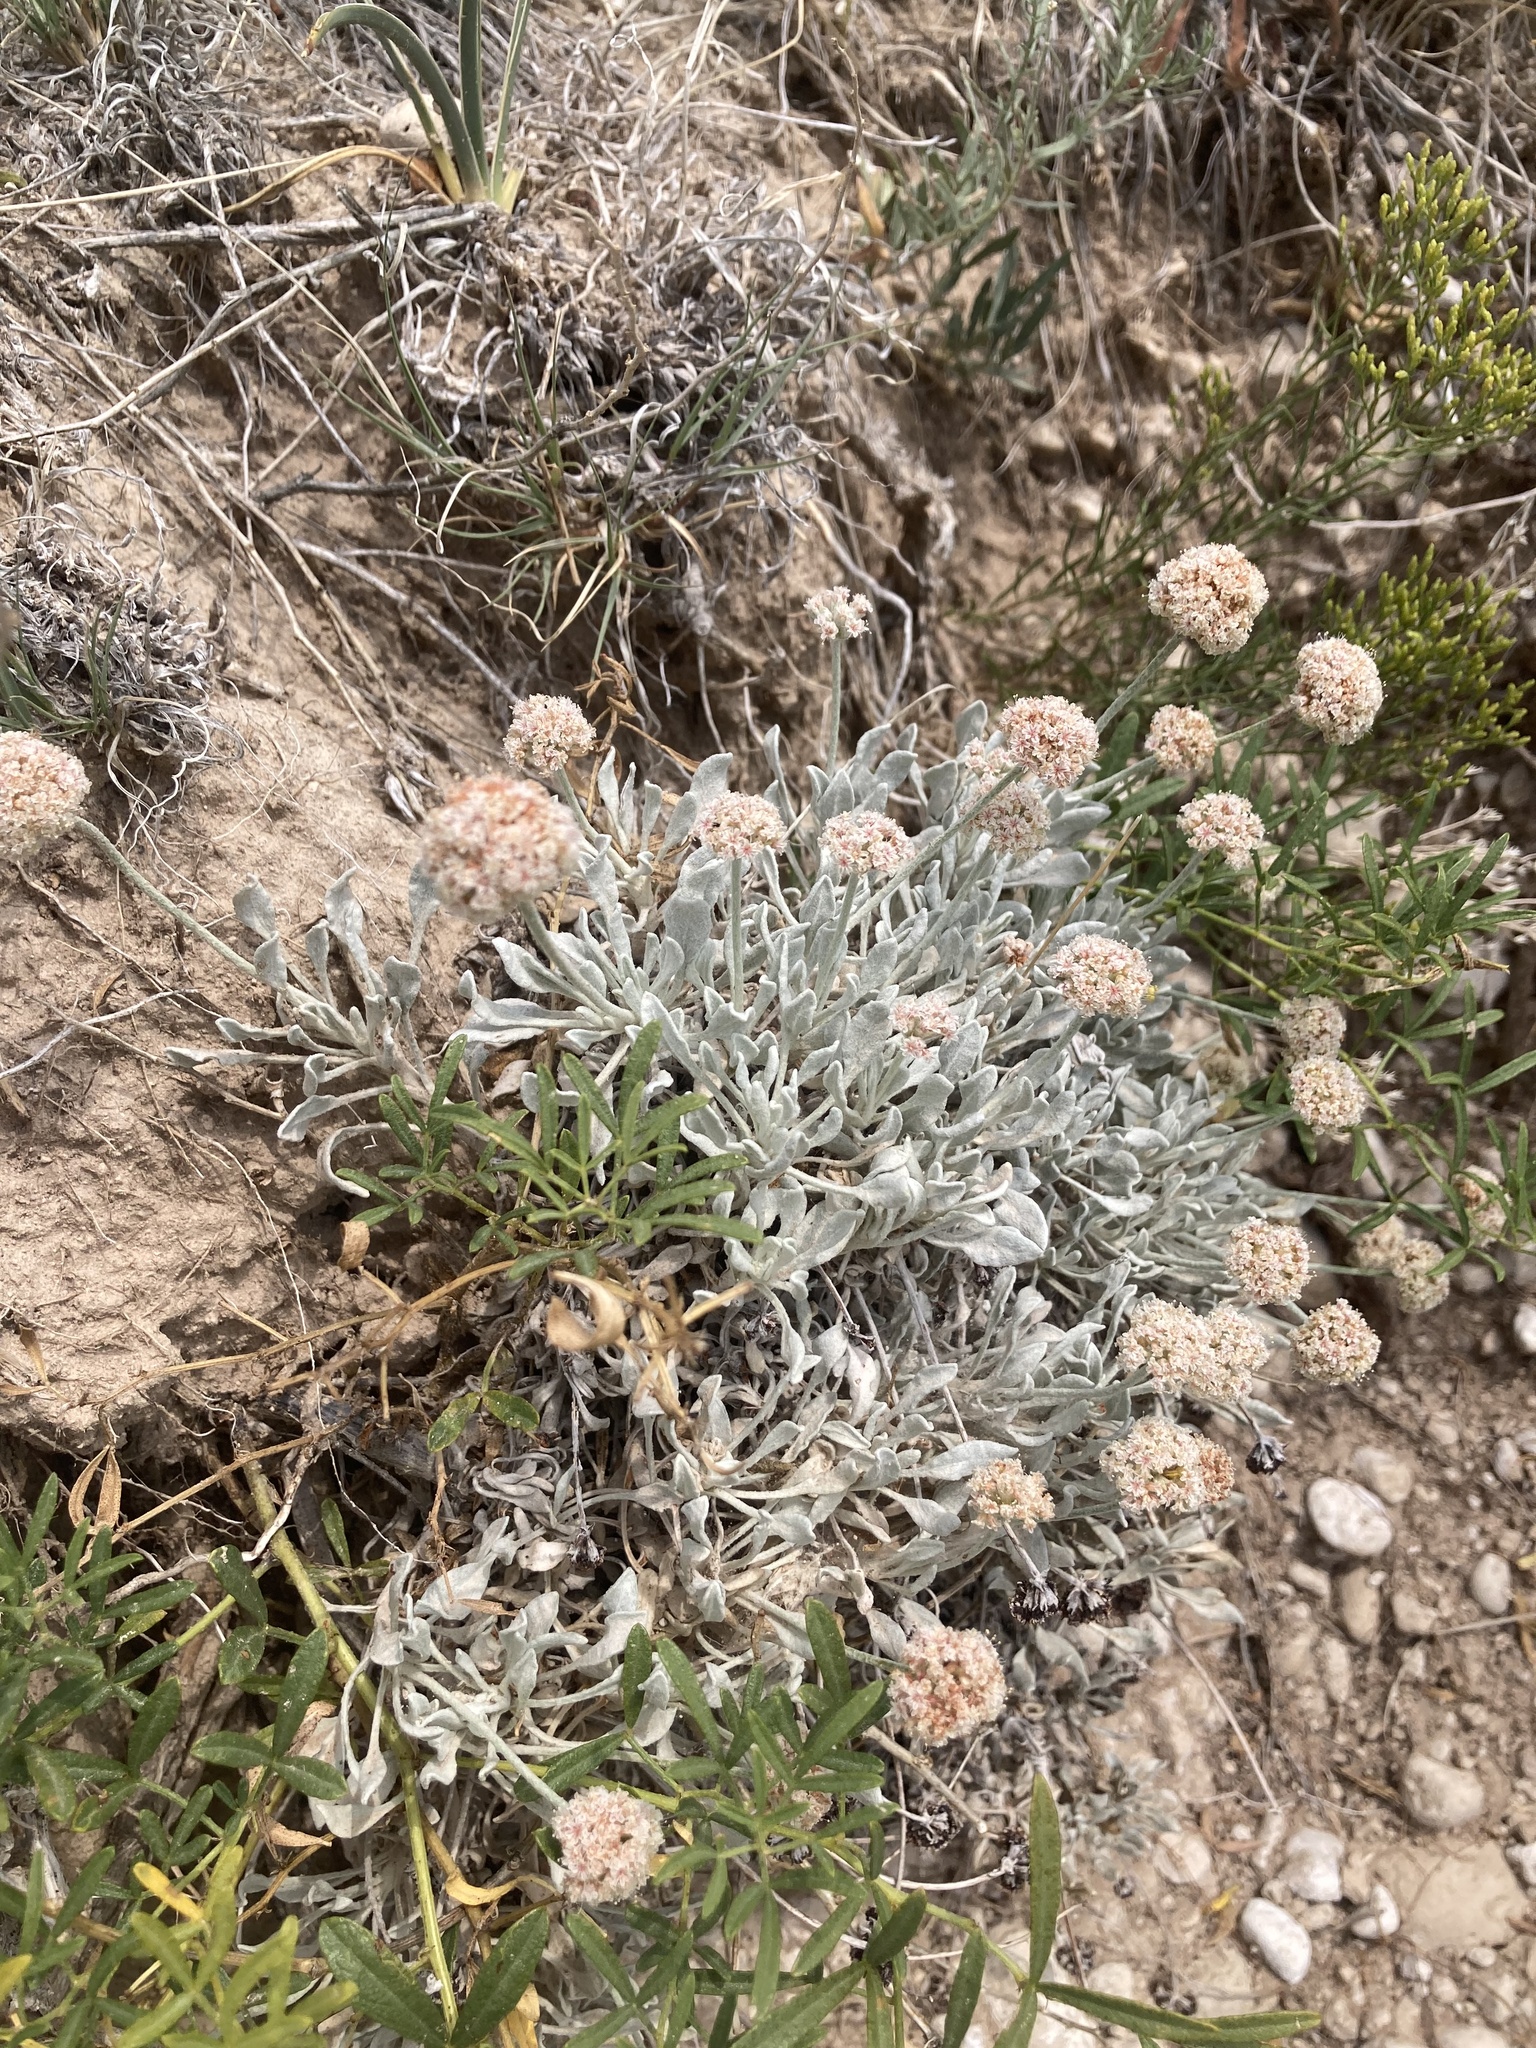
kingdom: Plantae
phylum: Tracheophyta
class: Magnoliopsida
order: Caryophyllales
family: Polygonaceae
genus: Eriogonum
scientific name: Eriogonum pauciflorum
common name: Few-flower wild buckwheat
